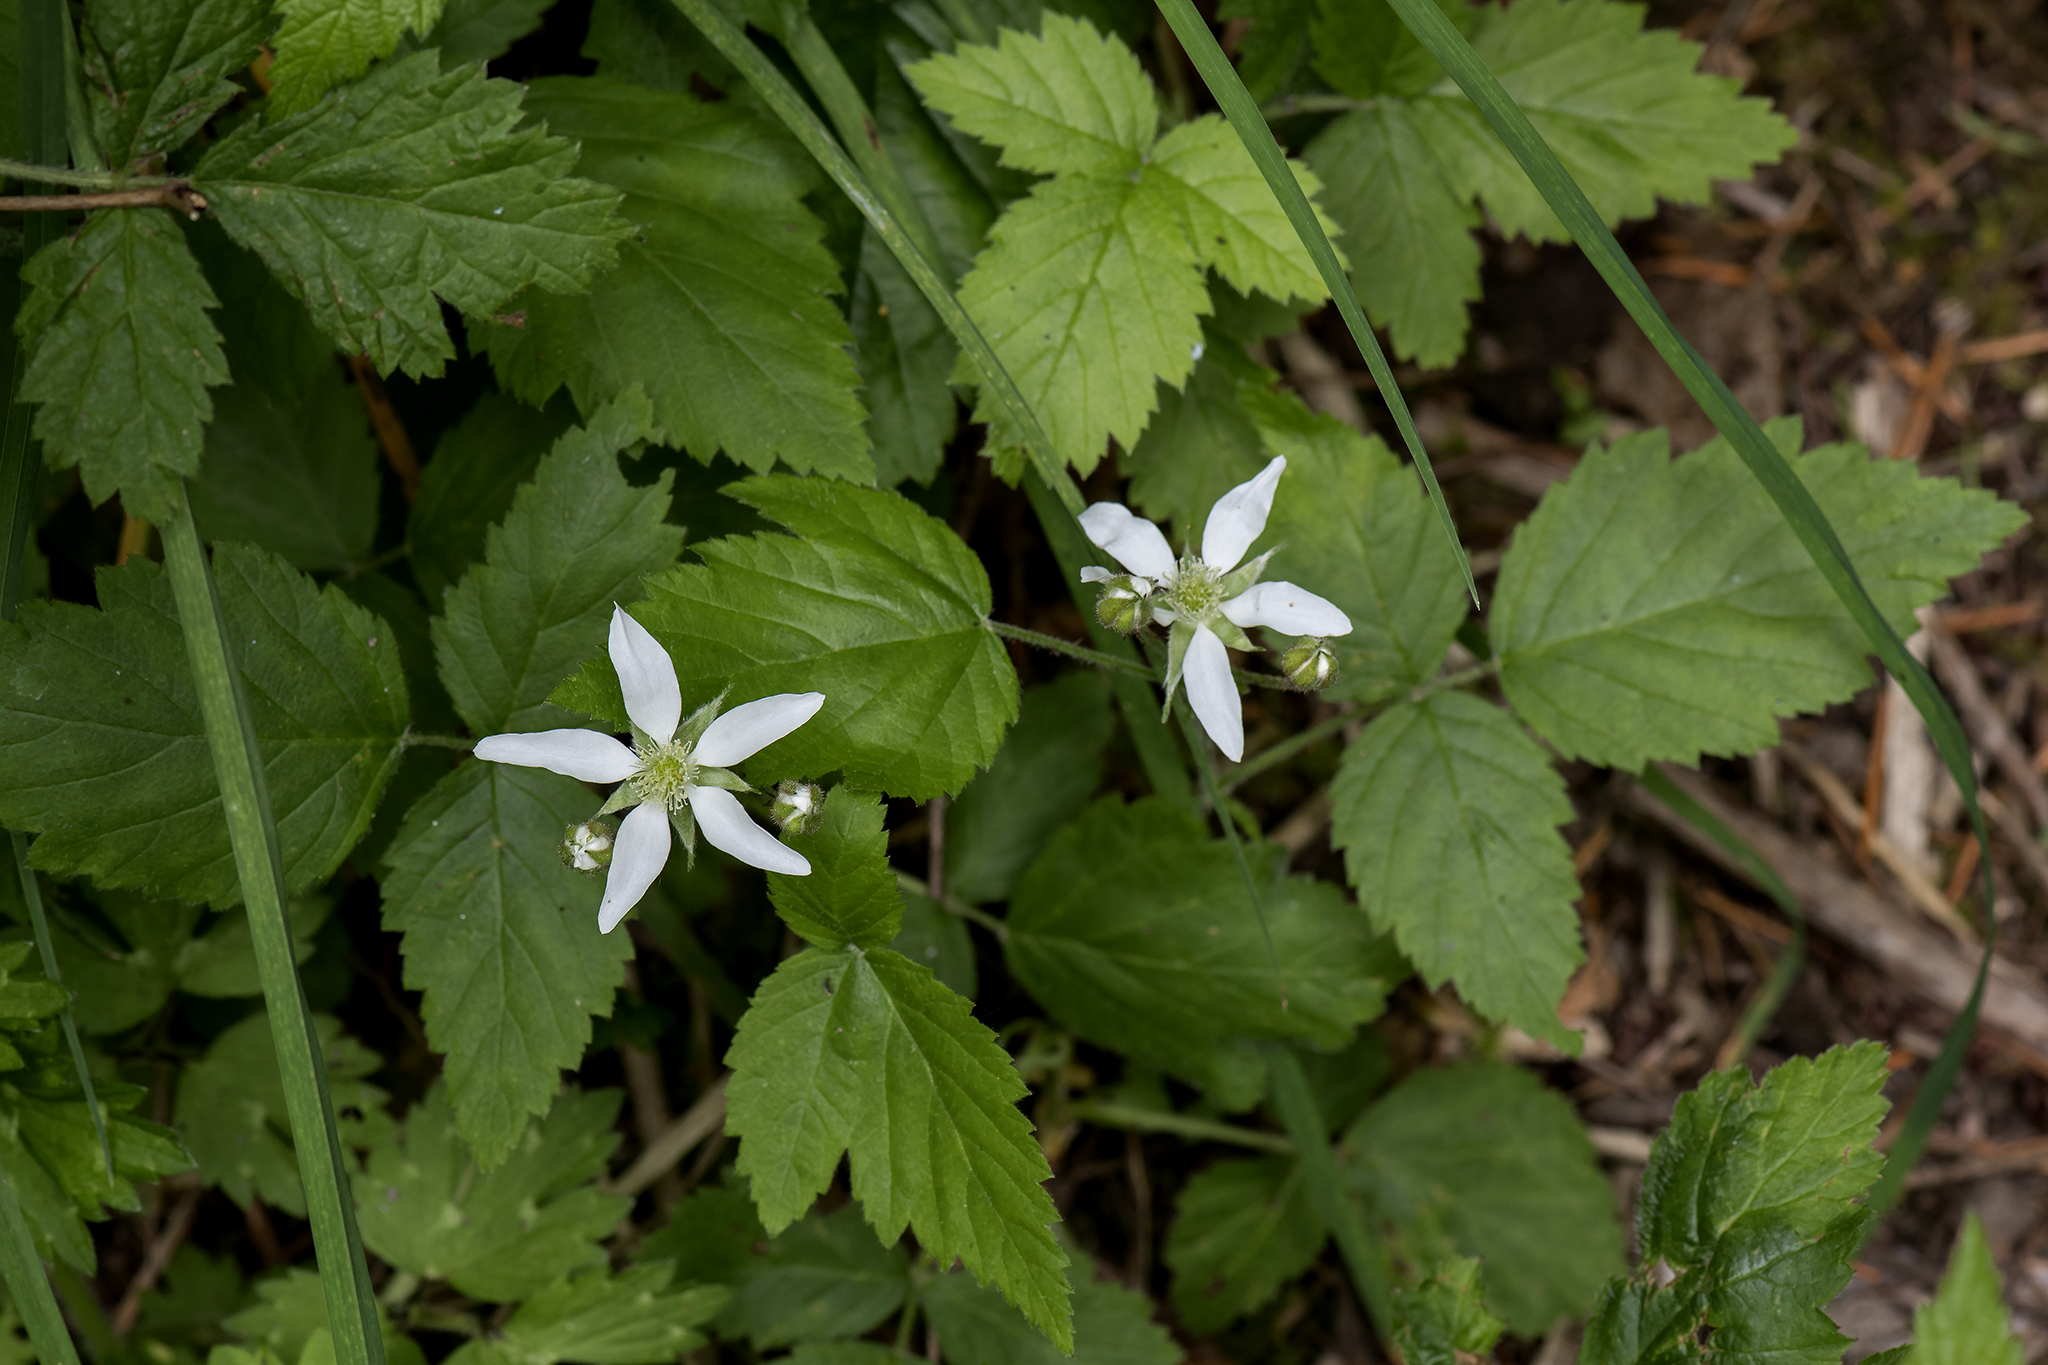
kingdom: Plantae
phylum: Tracheophyta
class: Magnoliopsida
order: Rosales
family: Rosaceae
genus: Rubus
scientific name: Rubus ursinus
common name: Pacific blackberry
